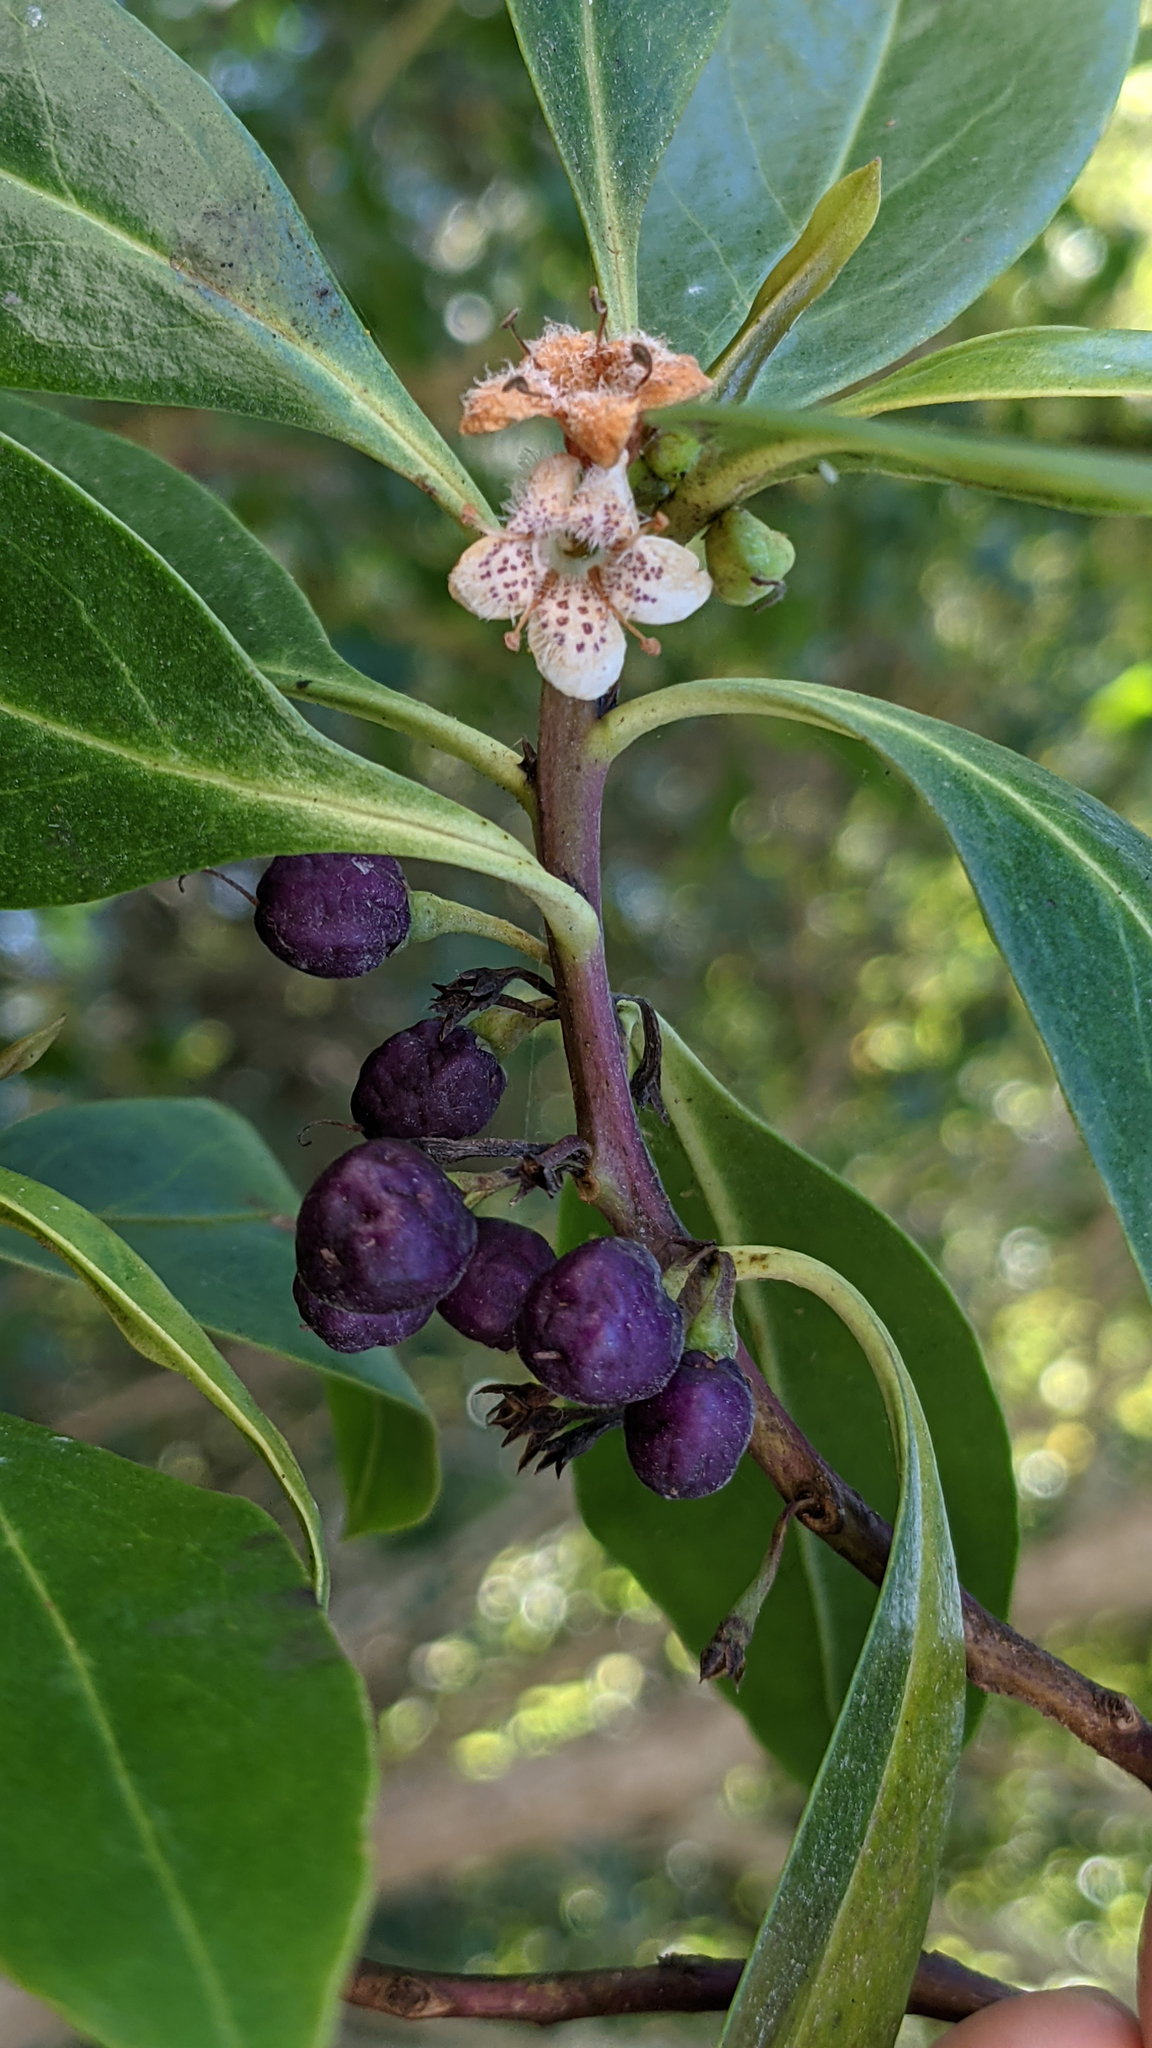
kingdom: Plantae
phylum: Tracheophyta
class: Magnoliopsida
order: Lamiales
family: Scrophulariaceae
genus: Myoporum
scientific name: Myoporum laetum
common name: Ngaio tree
